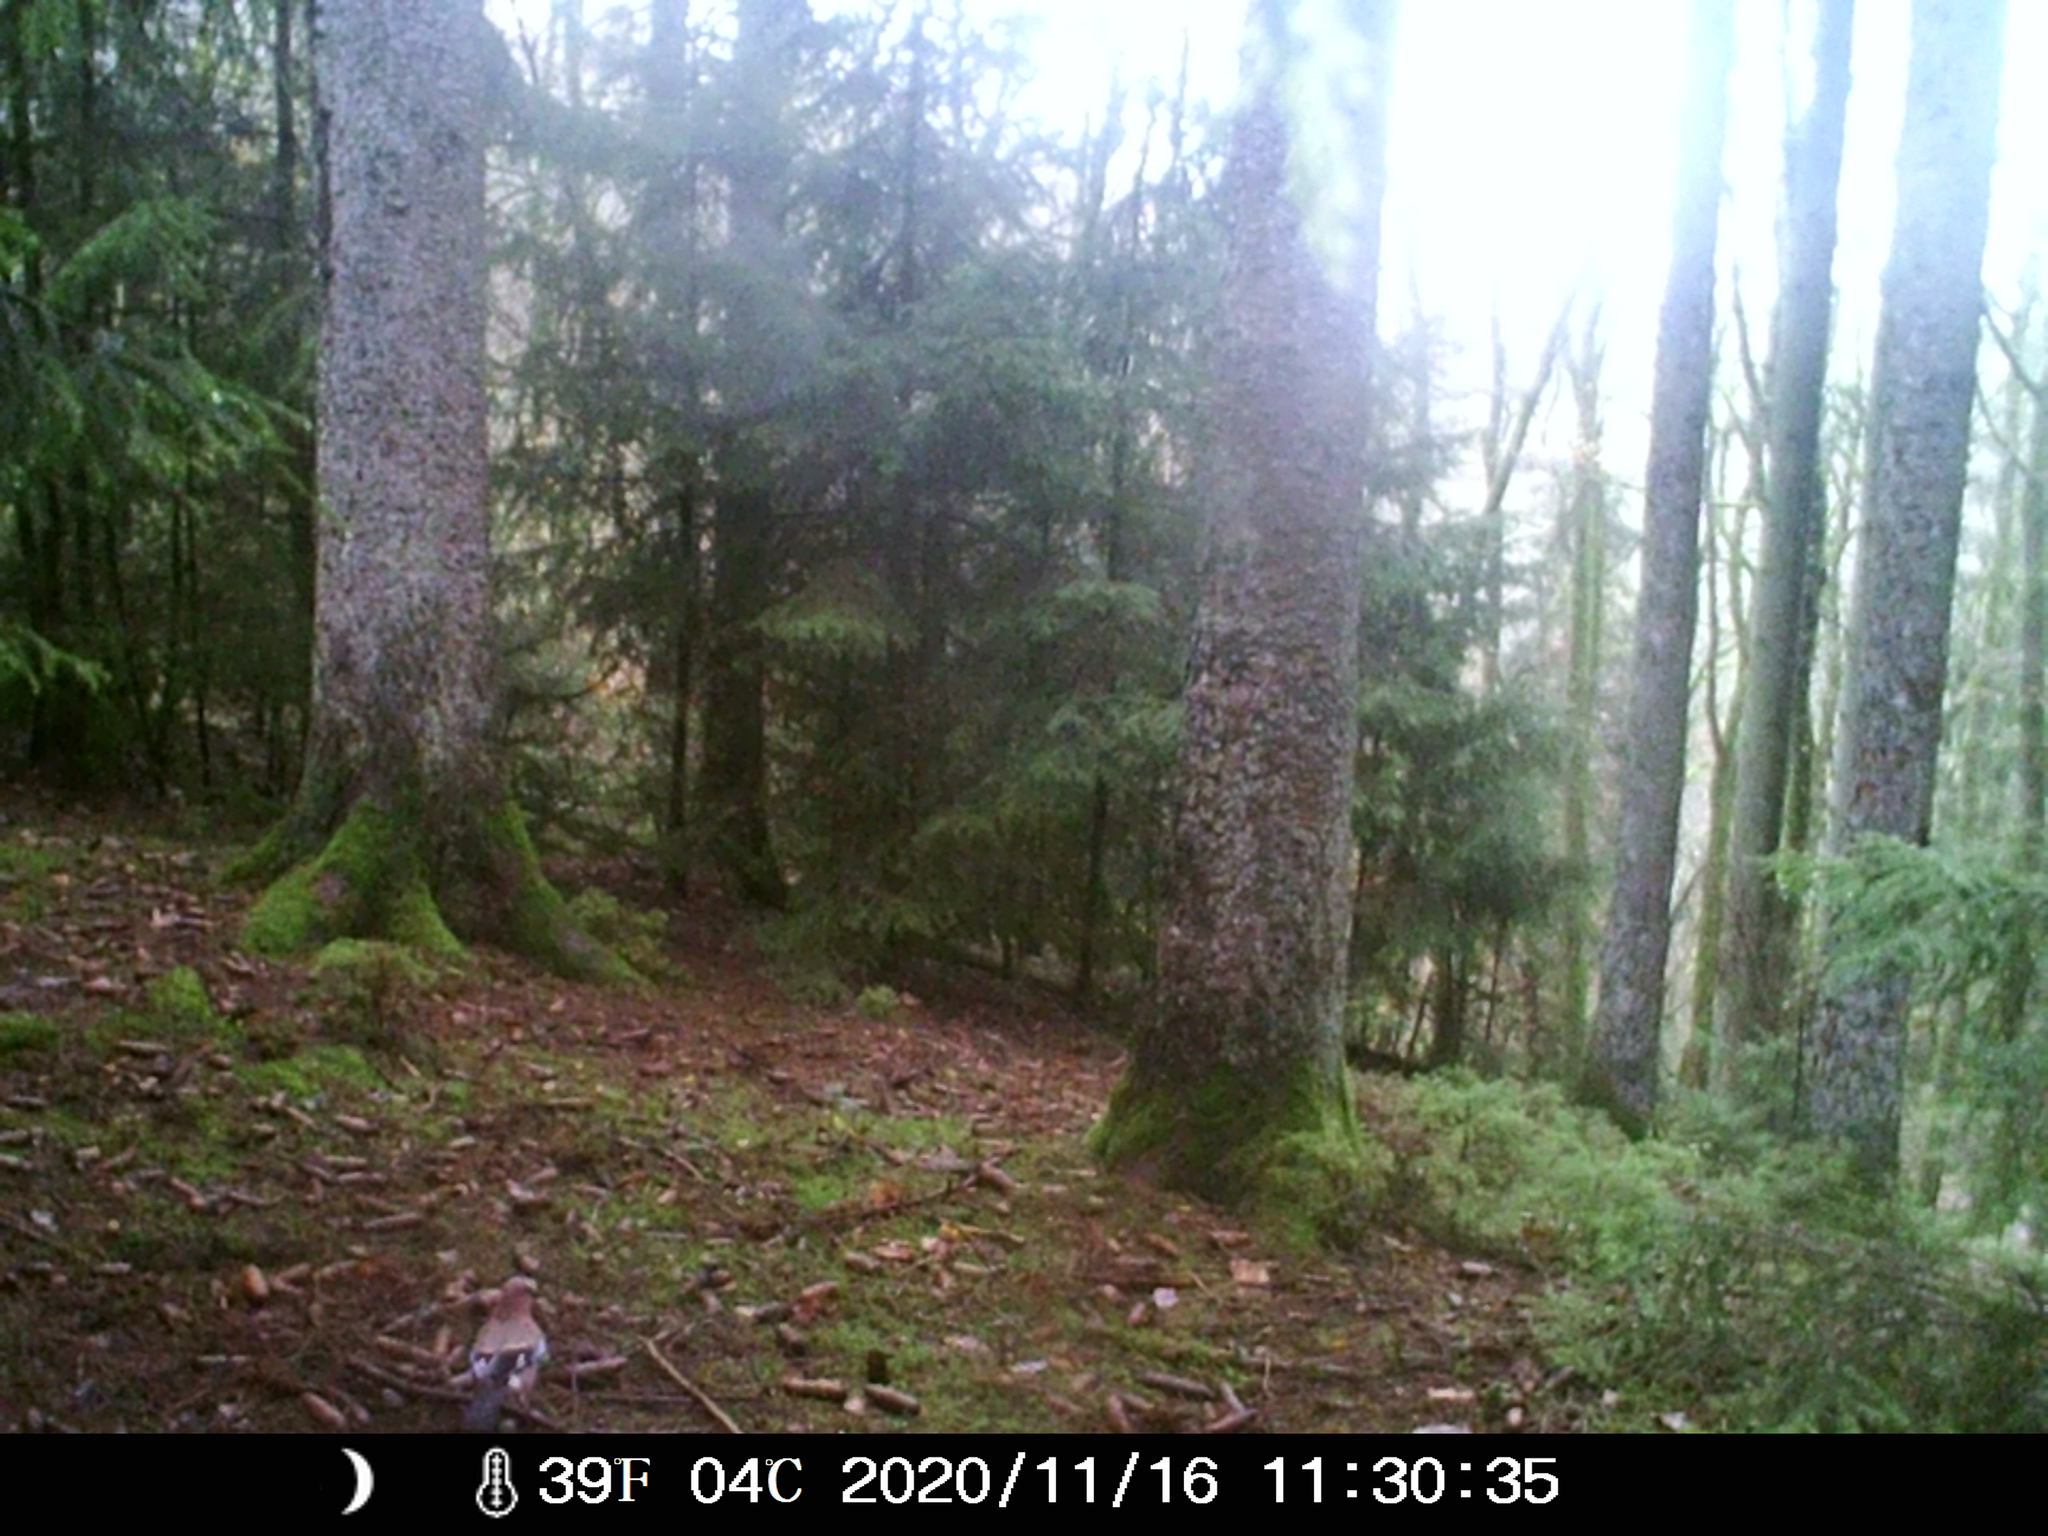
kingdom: Animalia
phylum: Chordata
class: Aves
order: Passeriformes
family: Corvidae
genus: Garrulus
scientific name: Garrulus glandarius
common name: Eurasian jay
